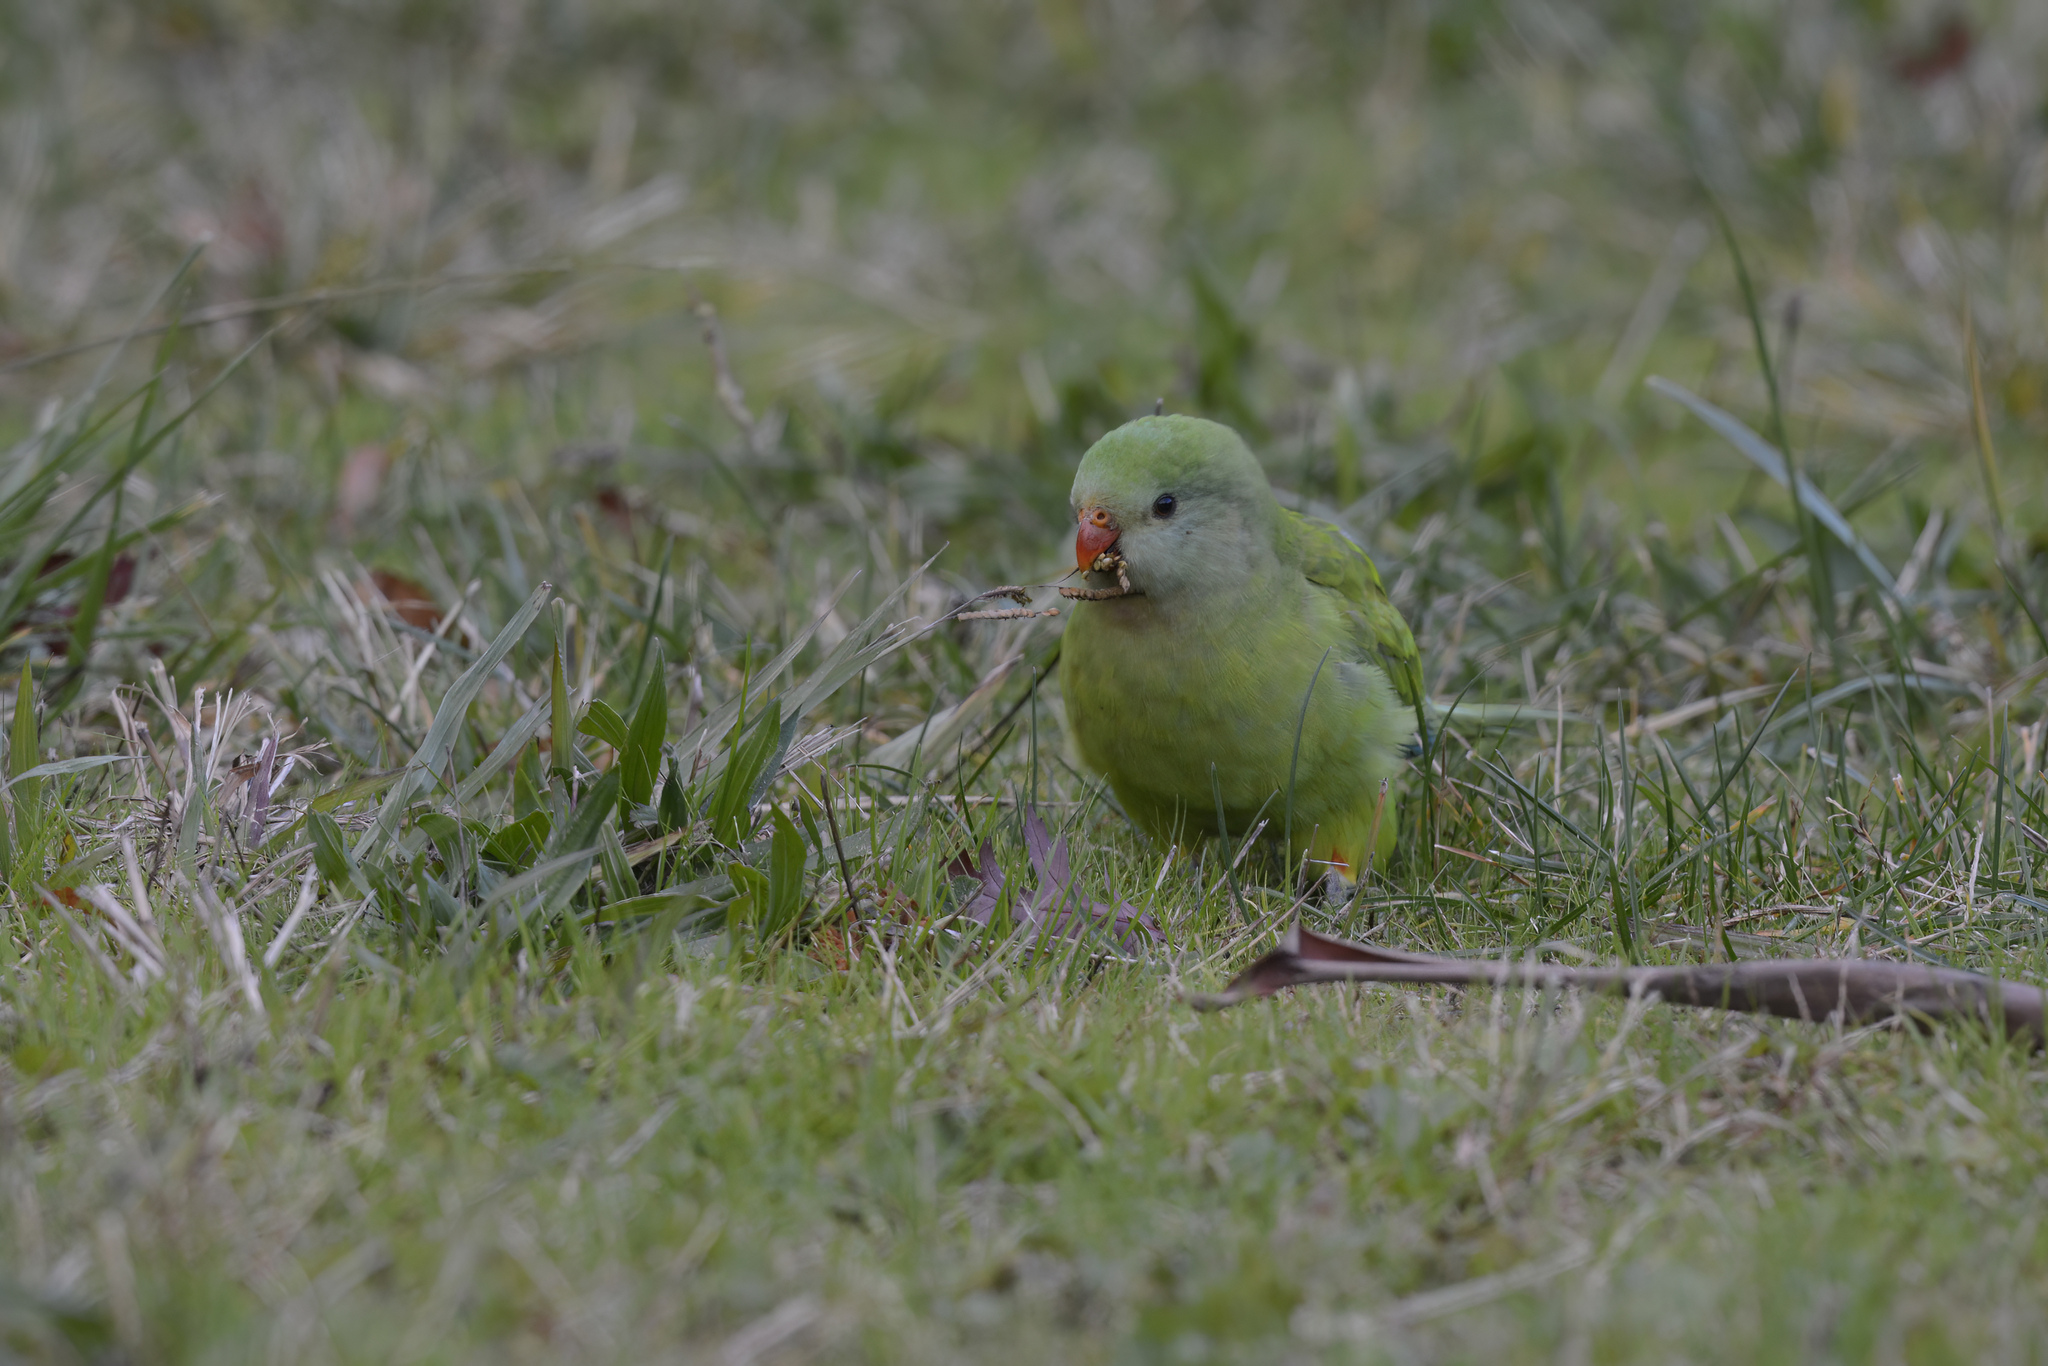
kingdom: Animalia
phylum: Chordata
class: Aves
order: Psittaciformes
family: Psittacidae
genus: Polytelis
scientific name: Polytelis swainsonii
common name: Superb parrot
